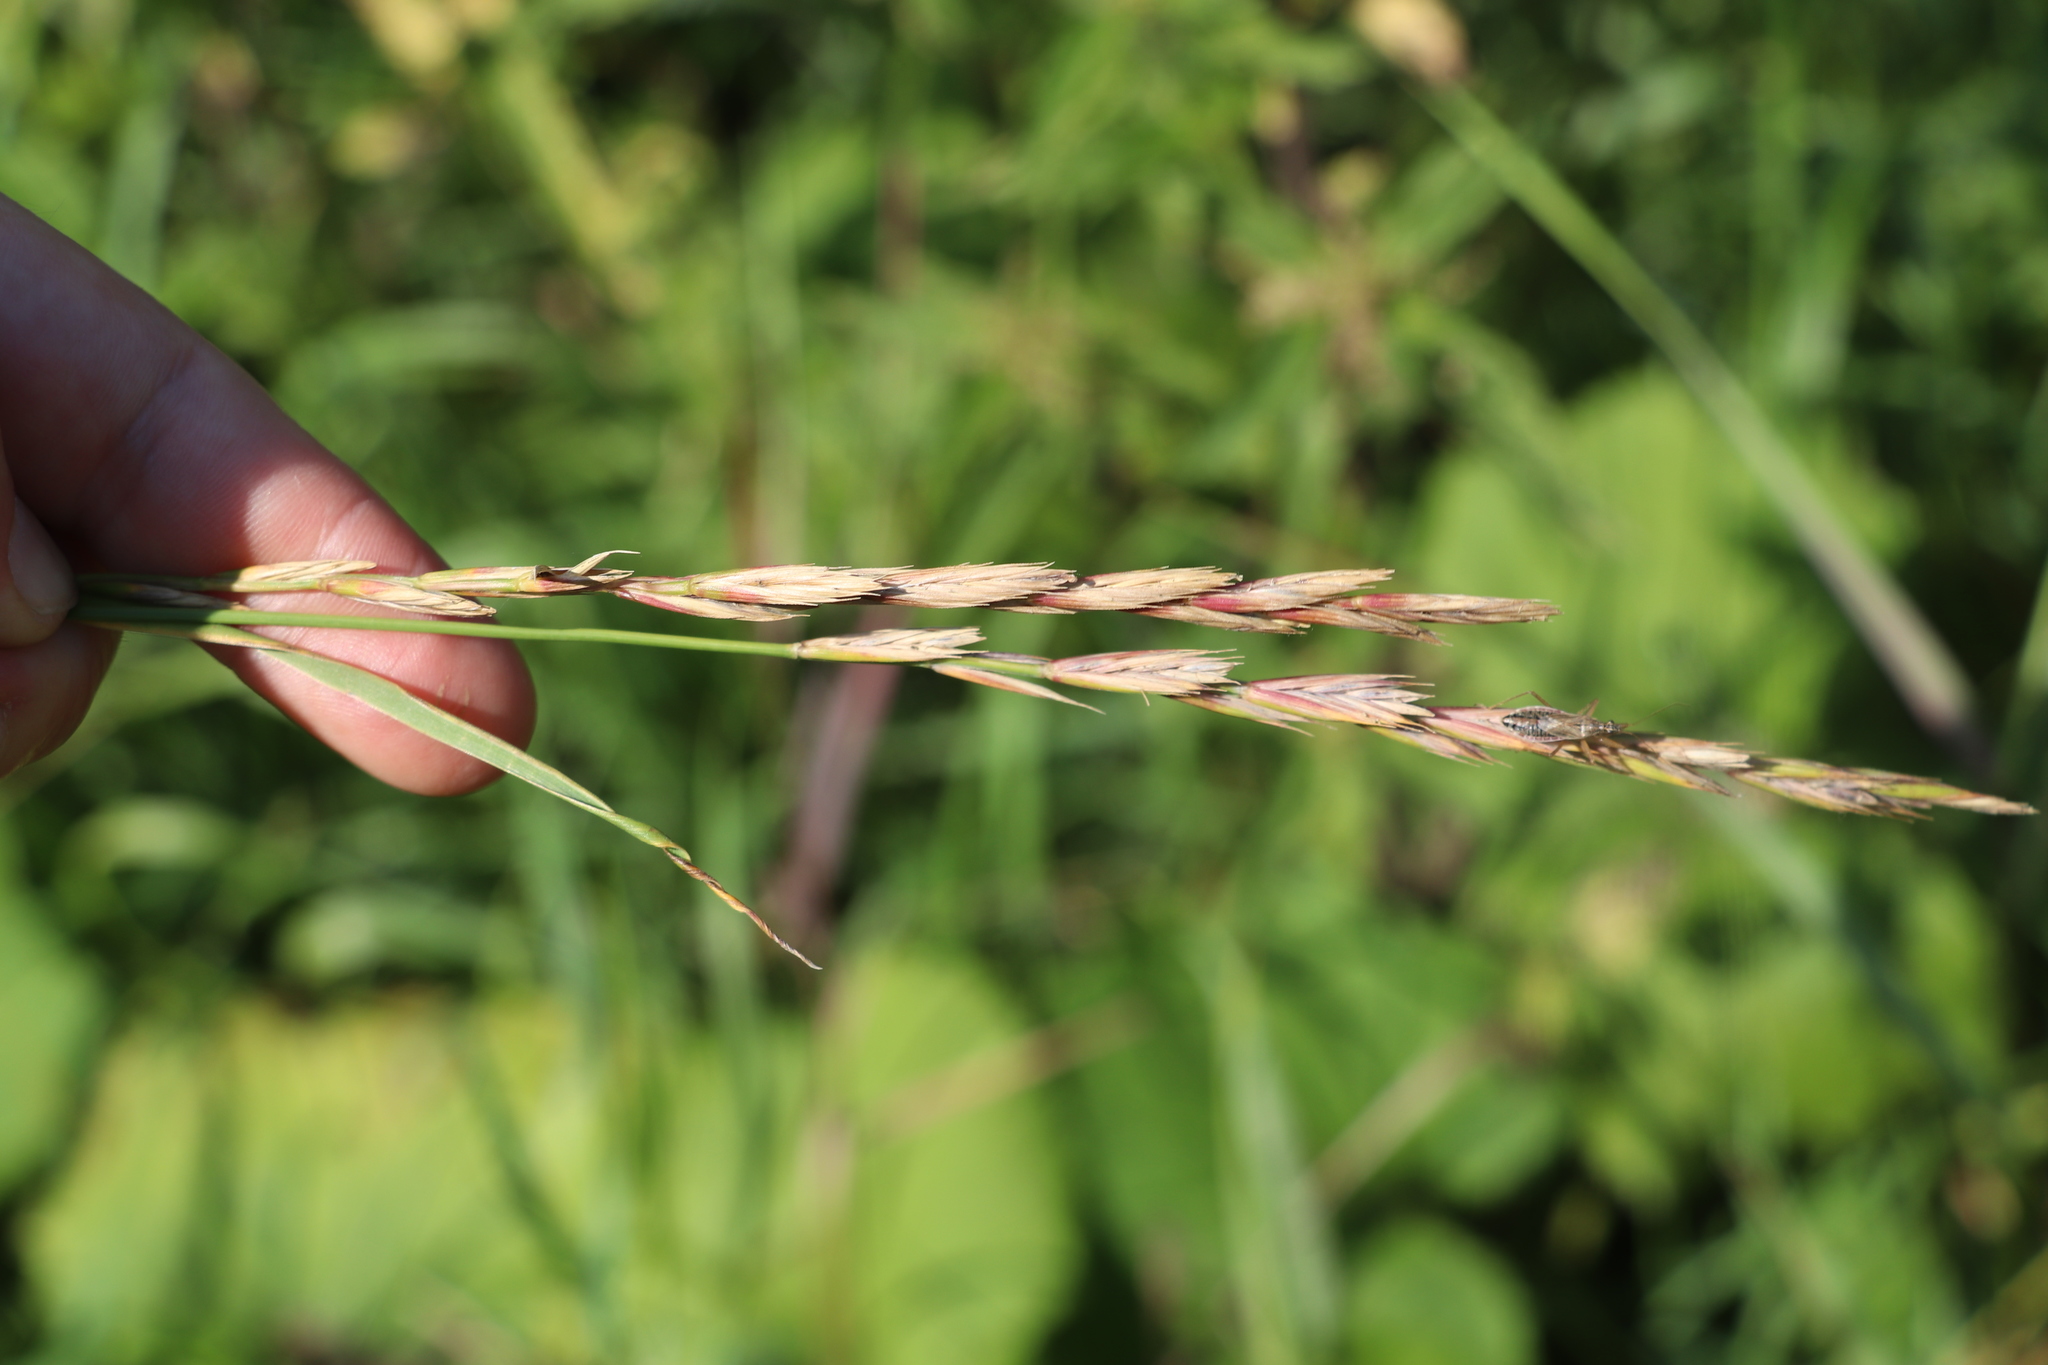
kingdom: Plantae
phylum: Tracheophyta
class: Liliopsida
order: Poales
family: Poaceae
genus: Elymus
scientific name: Elymus repens
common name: Quackgrass
